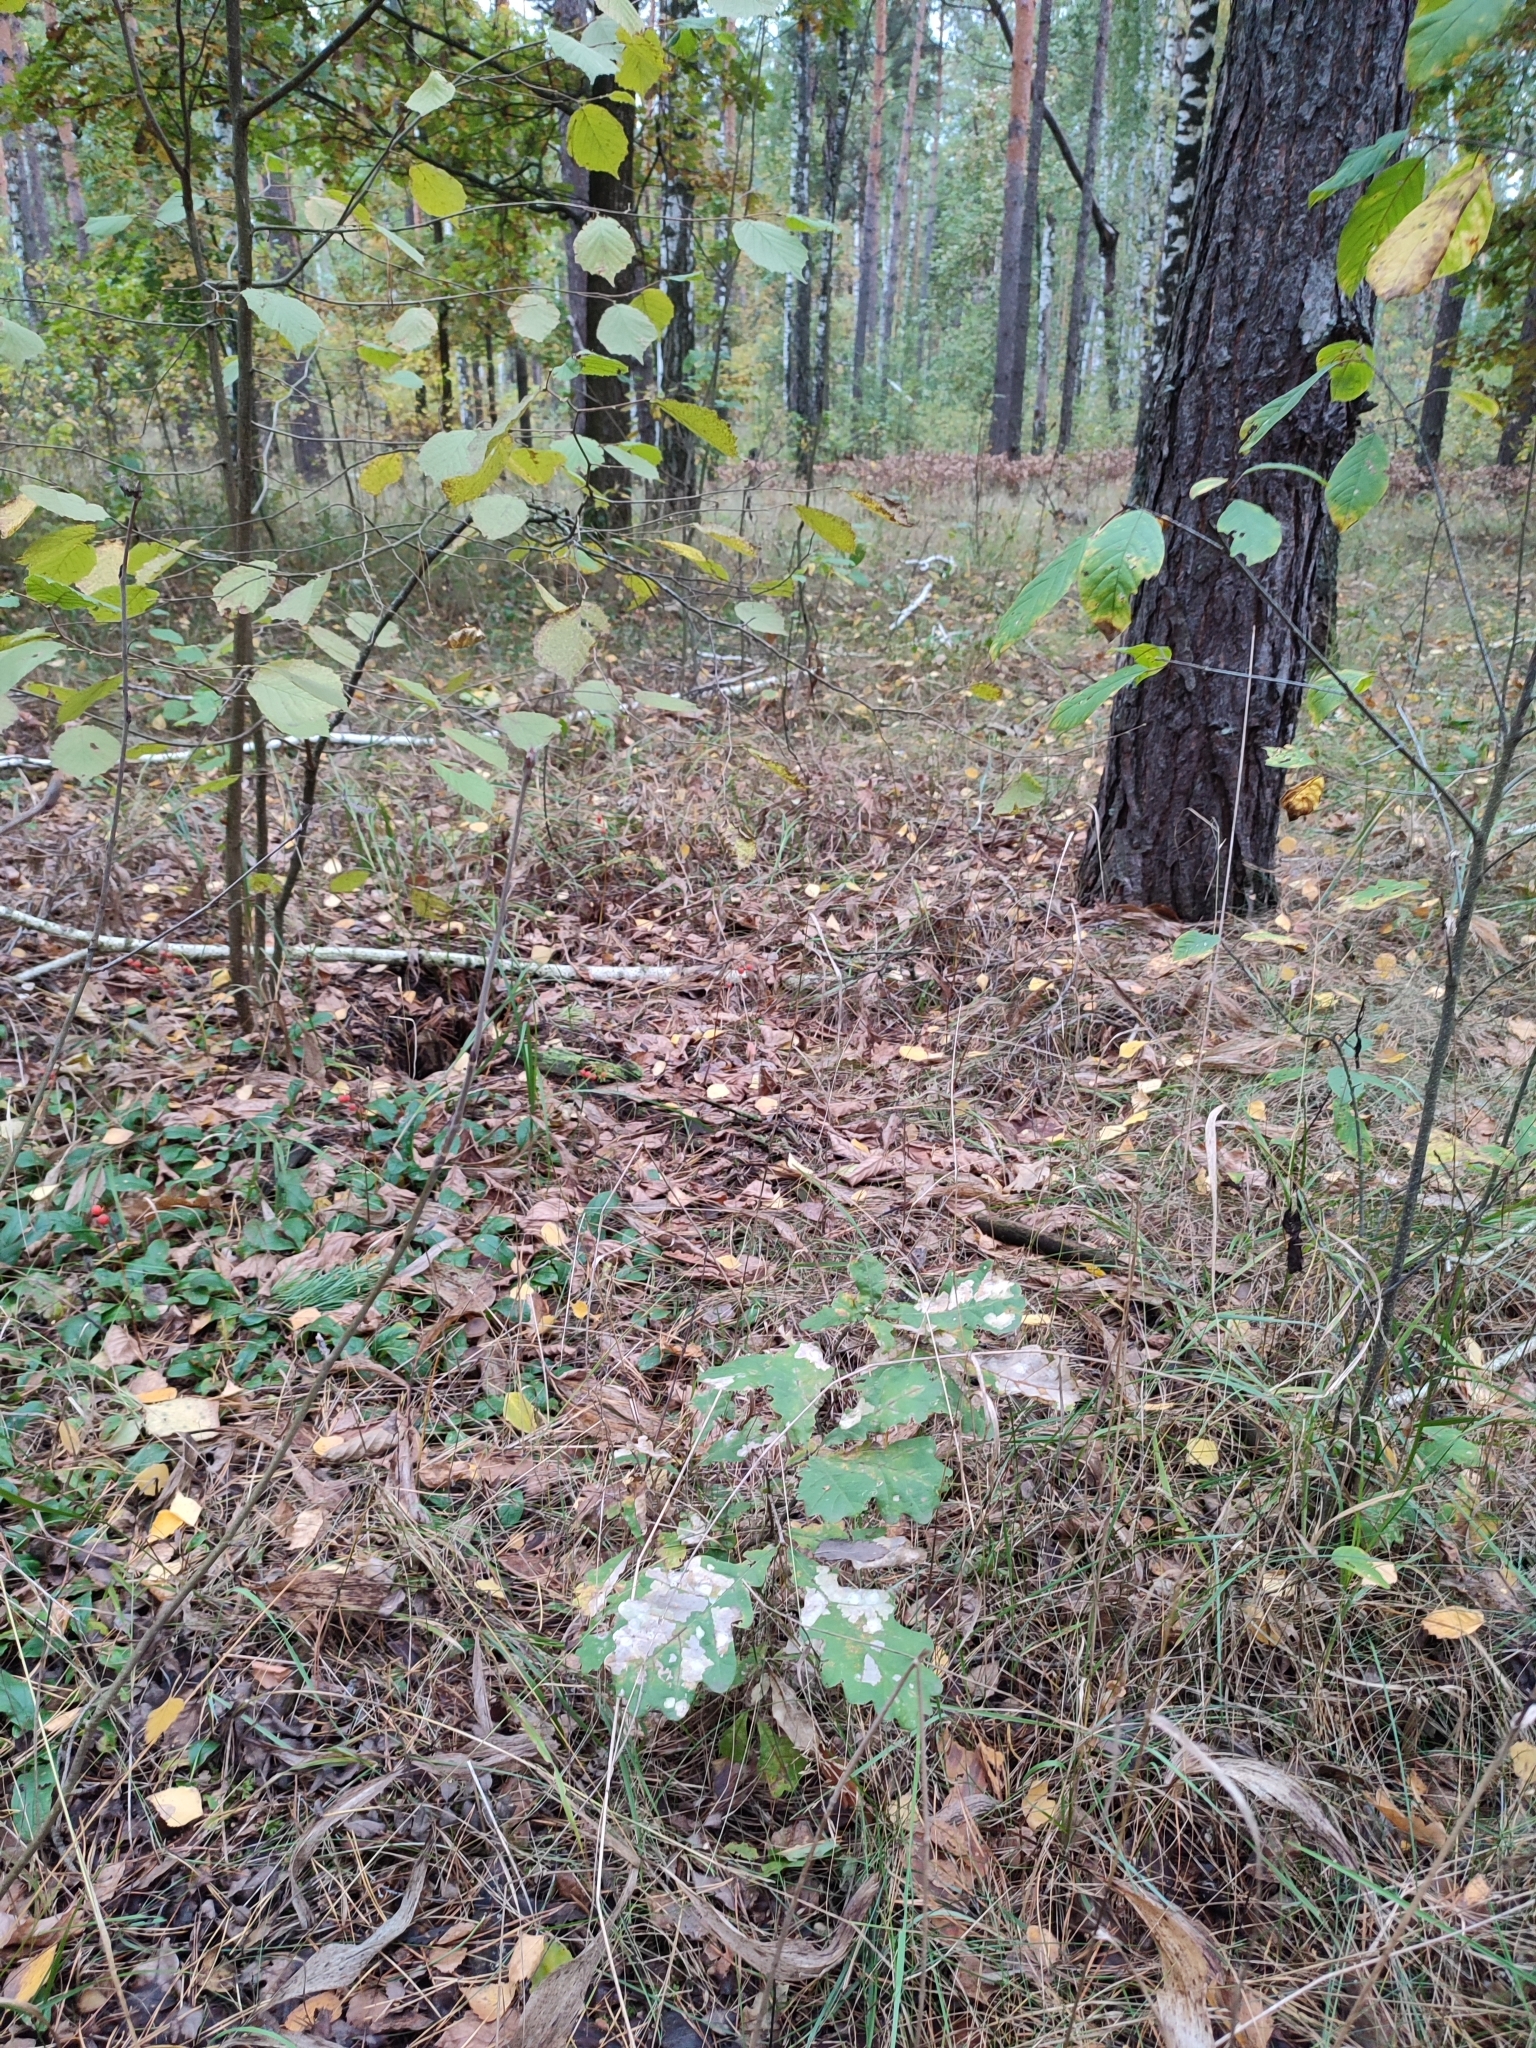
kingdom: Plantae
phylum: Tracheophyta
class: Magnoliopsida
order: Fagales
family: Fagaceae
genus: Quercus
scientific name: Quercus robur
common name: Pedunculate oak
